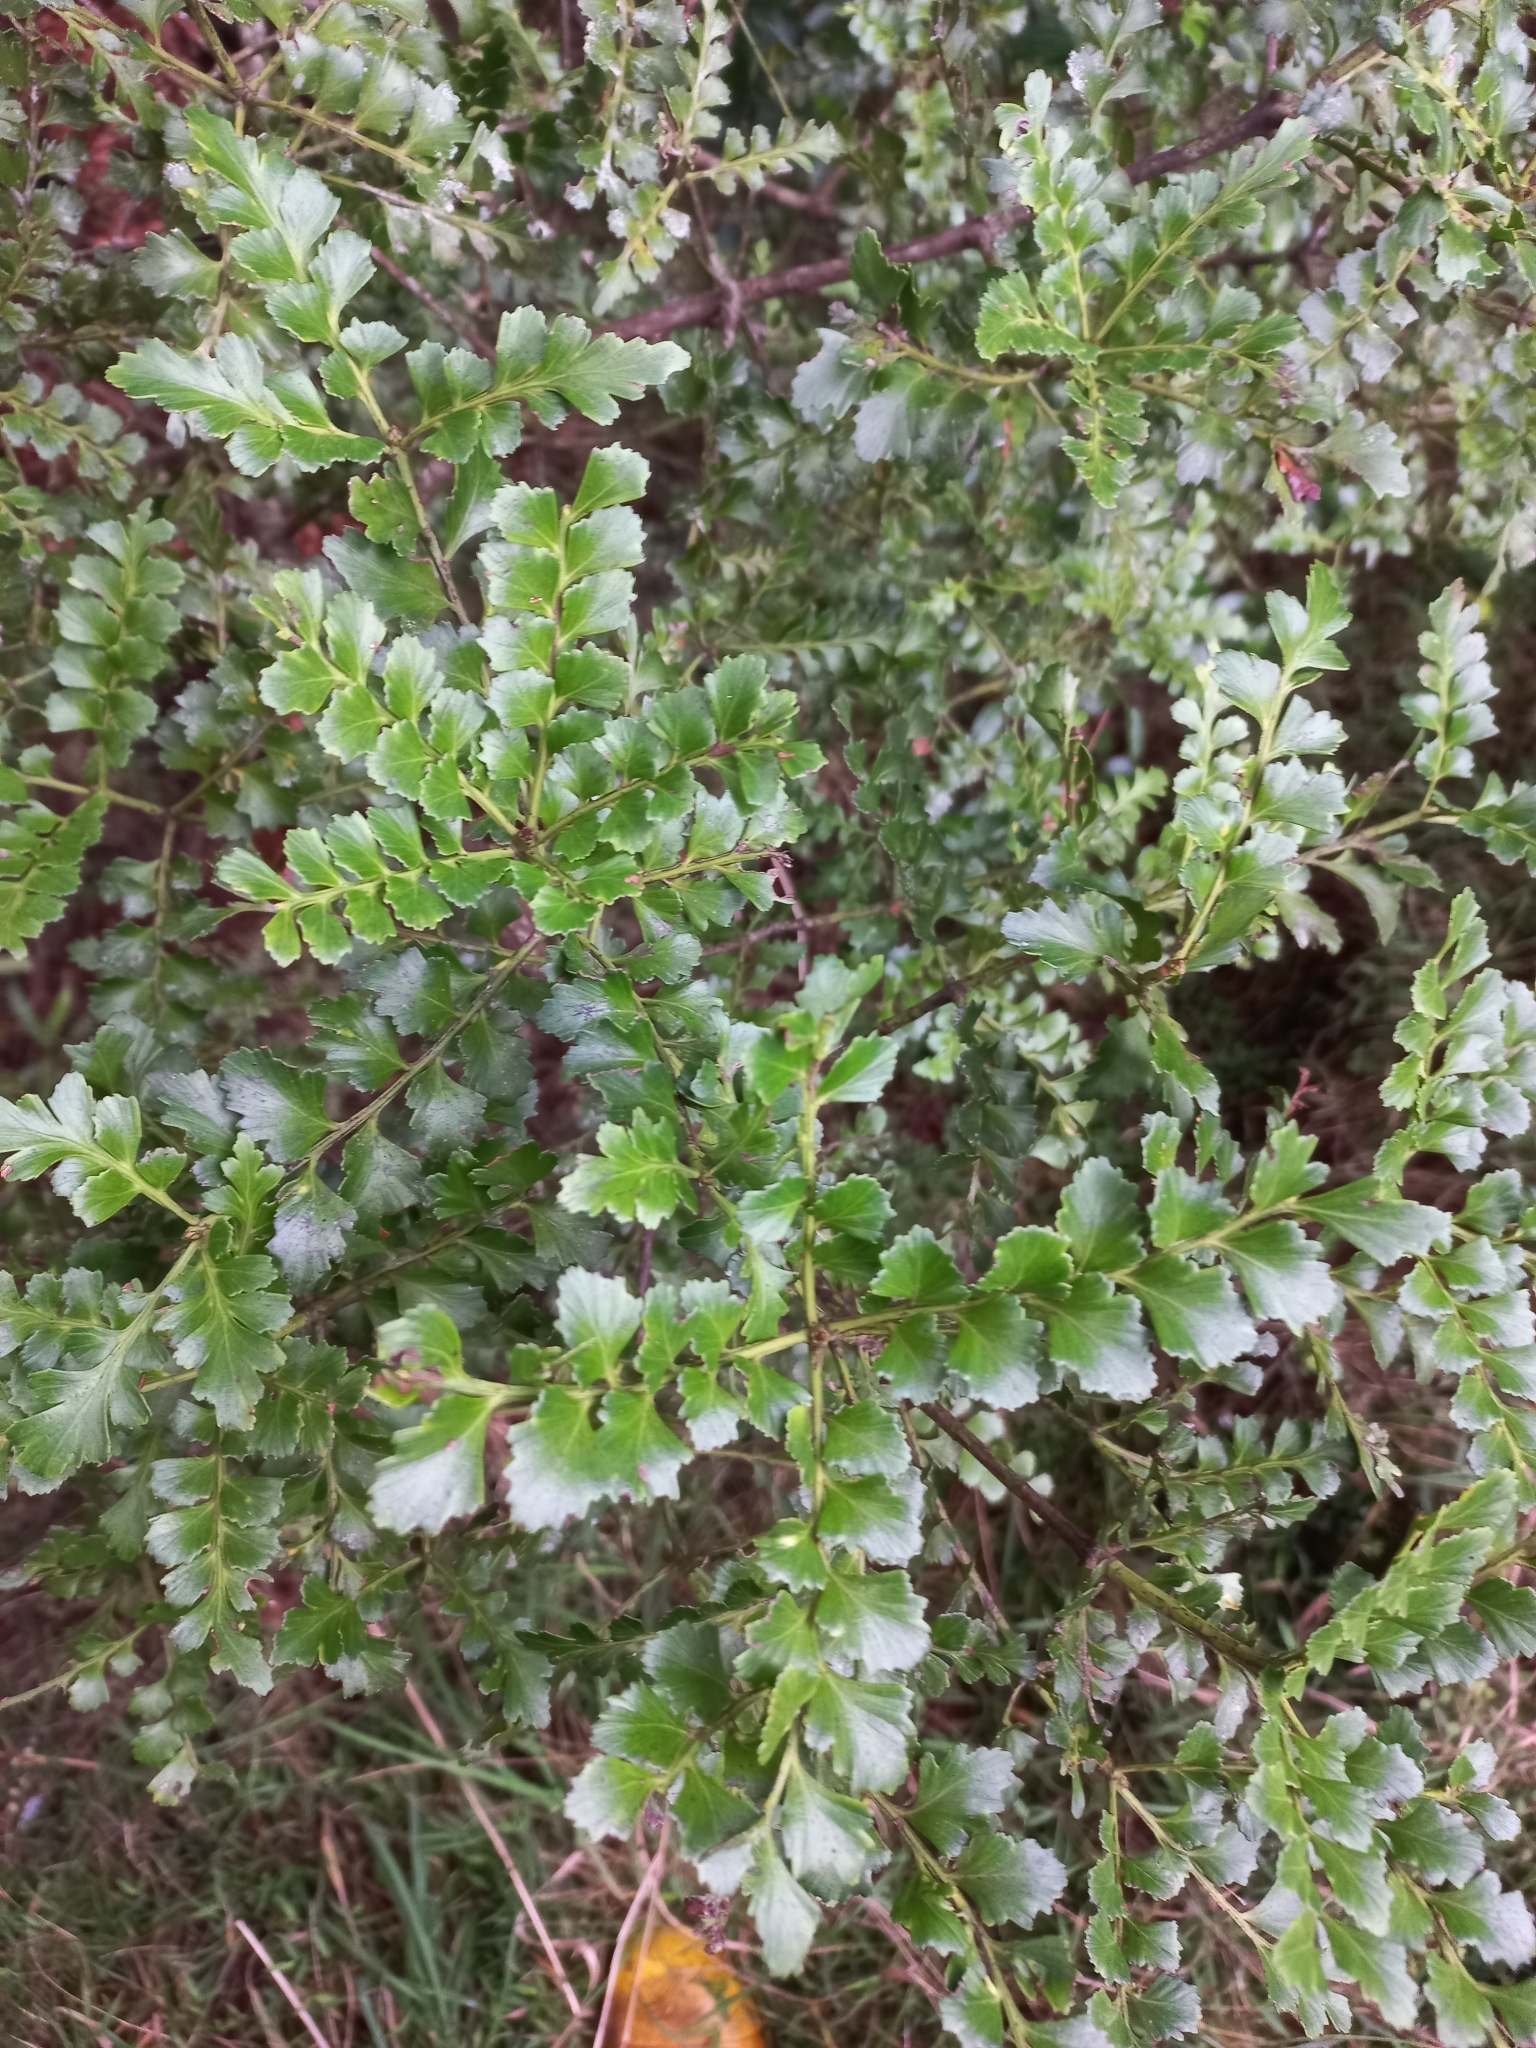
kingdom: Plantae
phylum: Tracheophyta
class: Pinopsida
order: Pinales
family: Phyllocladaceae
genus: Phyllocladus
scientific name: Phyllocladus trichomanoides
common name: Celery pine
